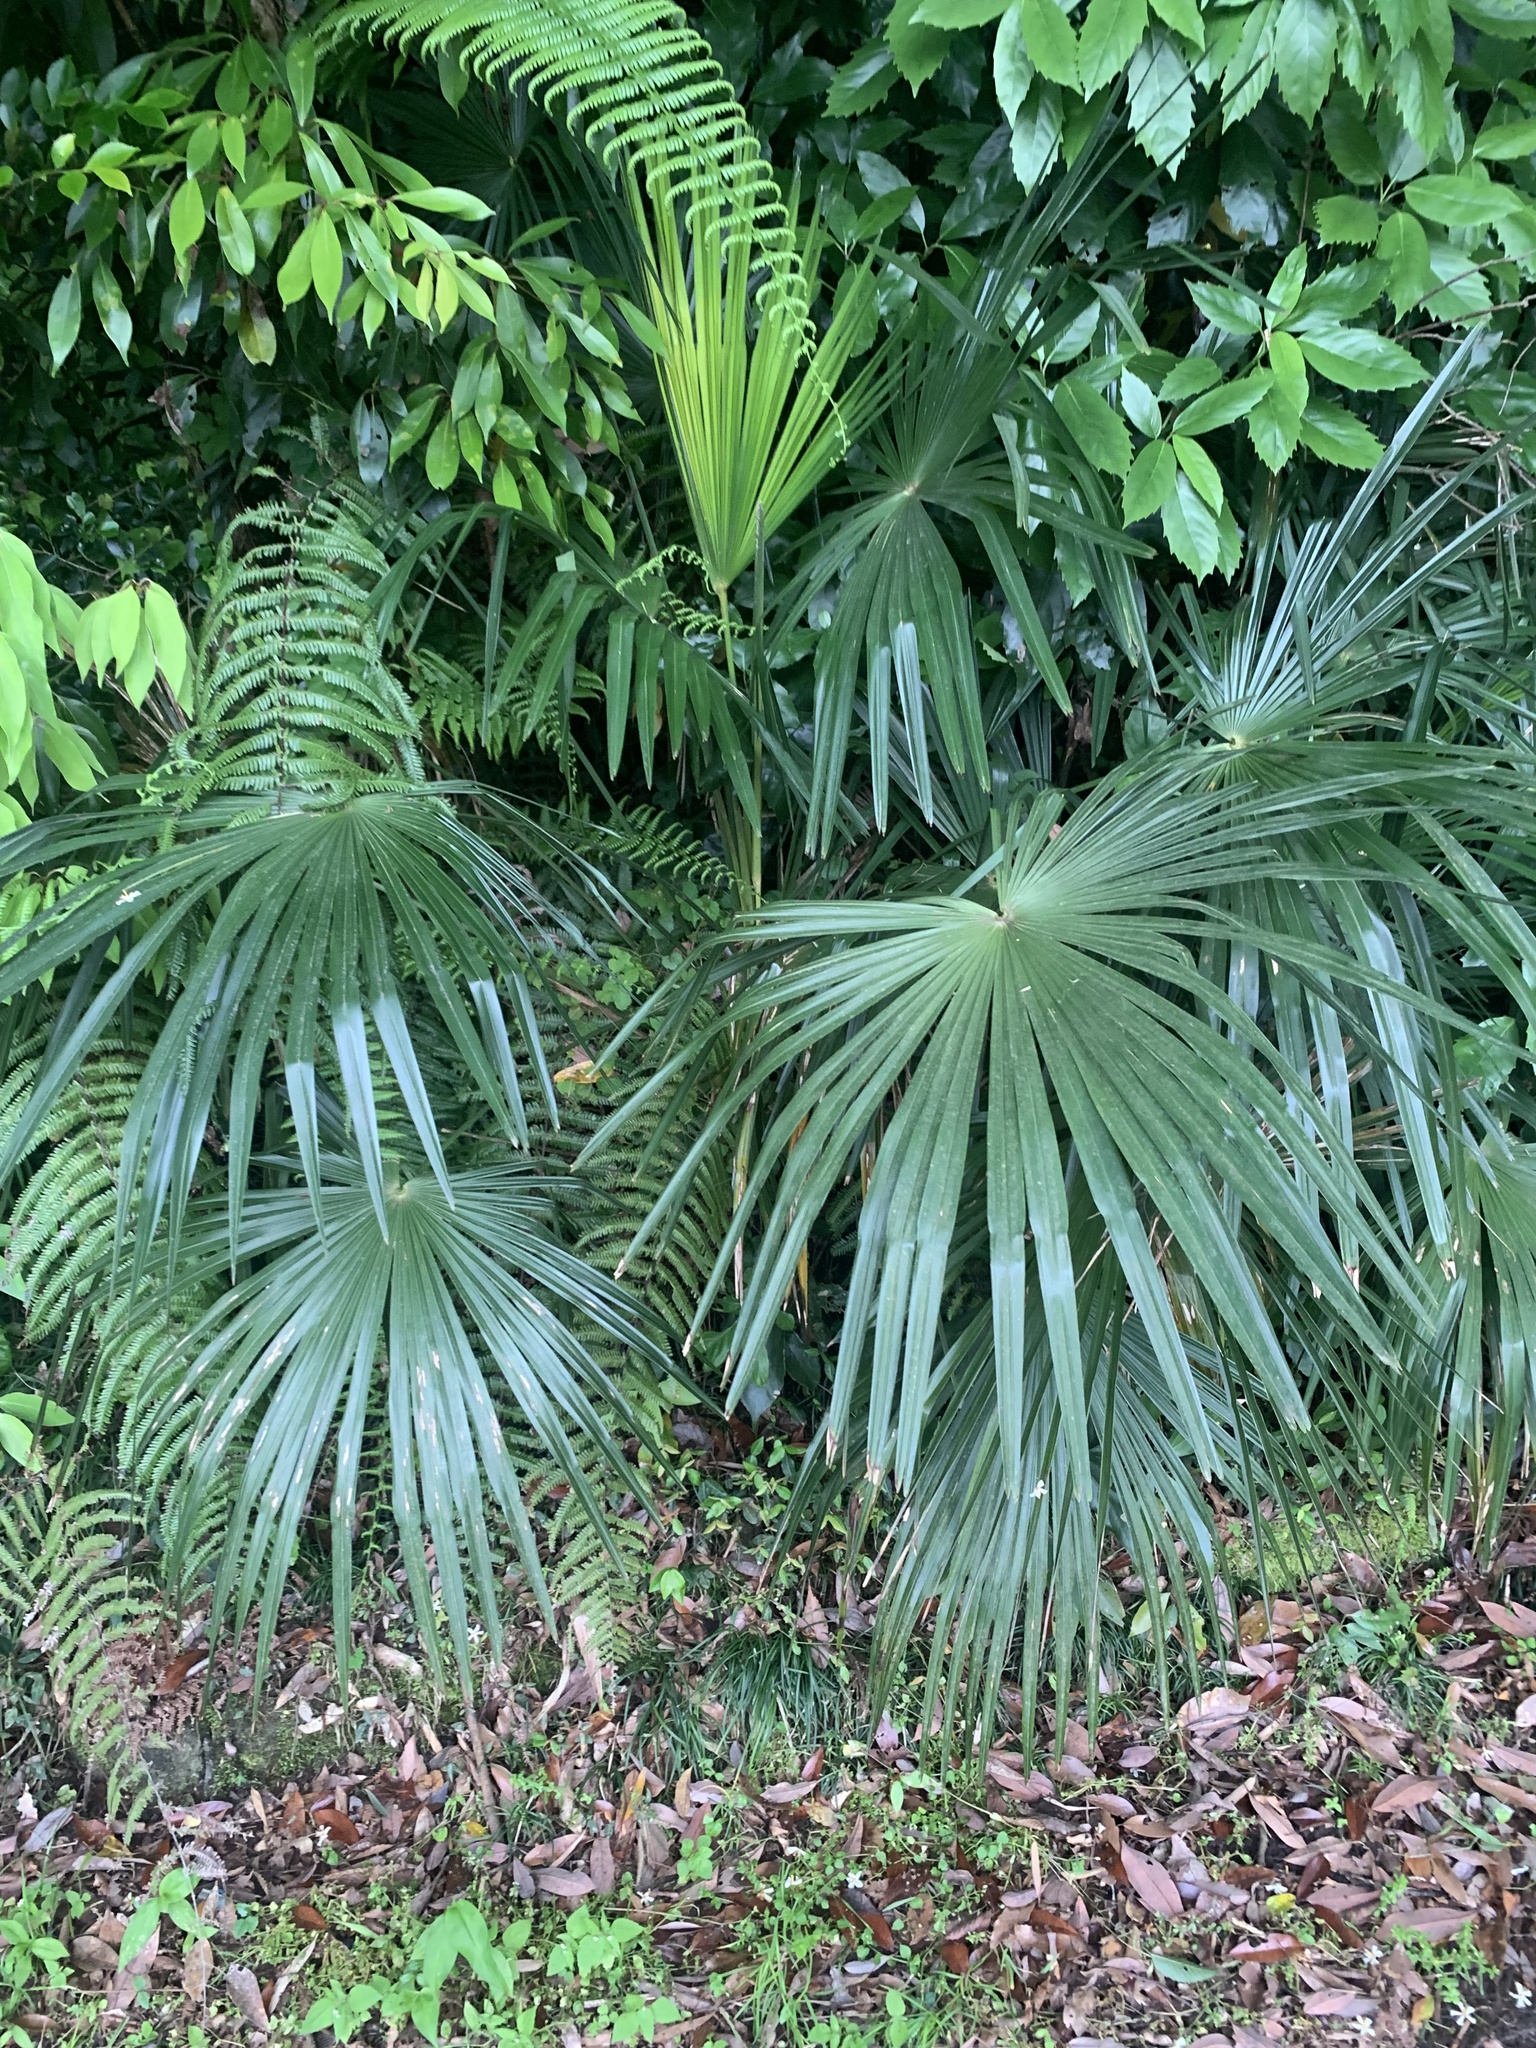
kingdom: Plantae
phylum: Tracheophyta
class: Liliopsida
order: Arecales
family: Arecaceae
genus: Trachycarpus
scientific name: Trachycarpus fortunei
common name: Chusan palm
